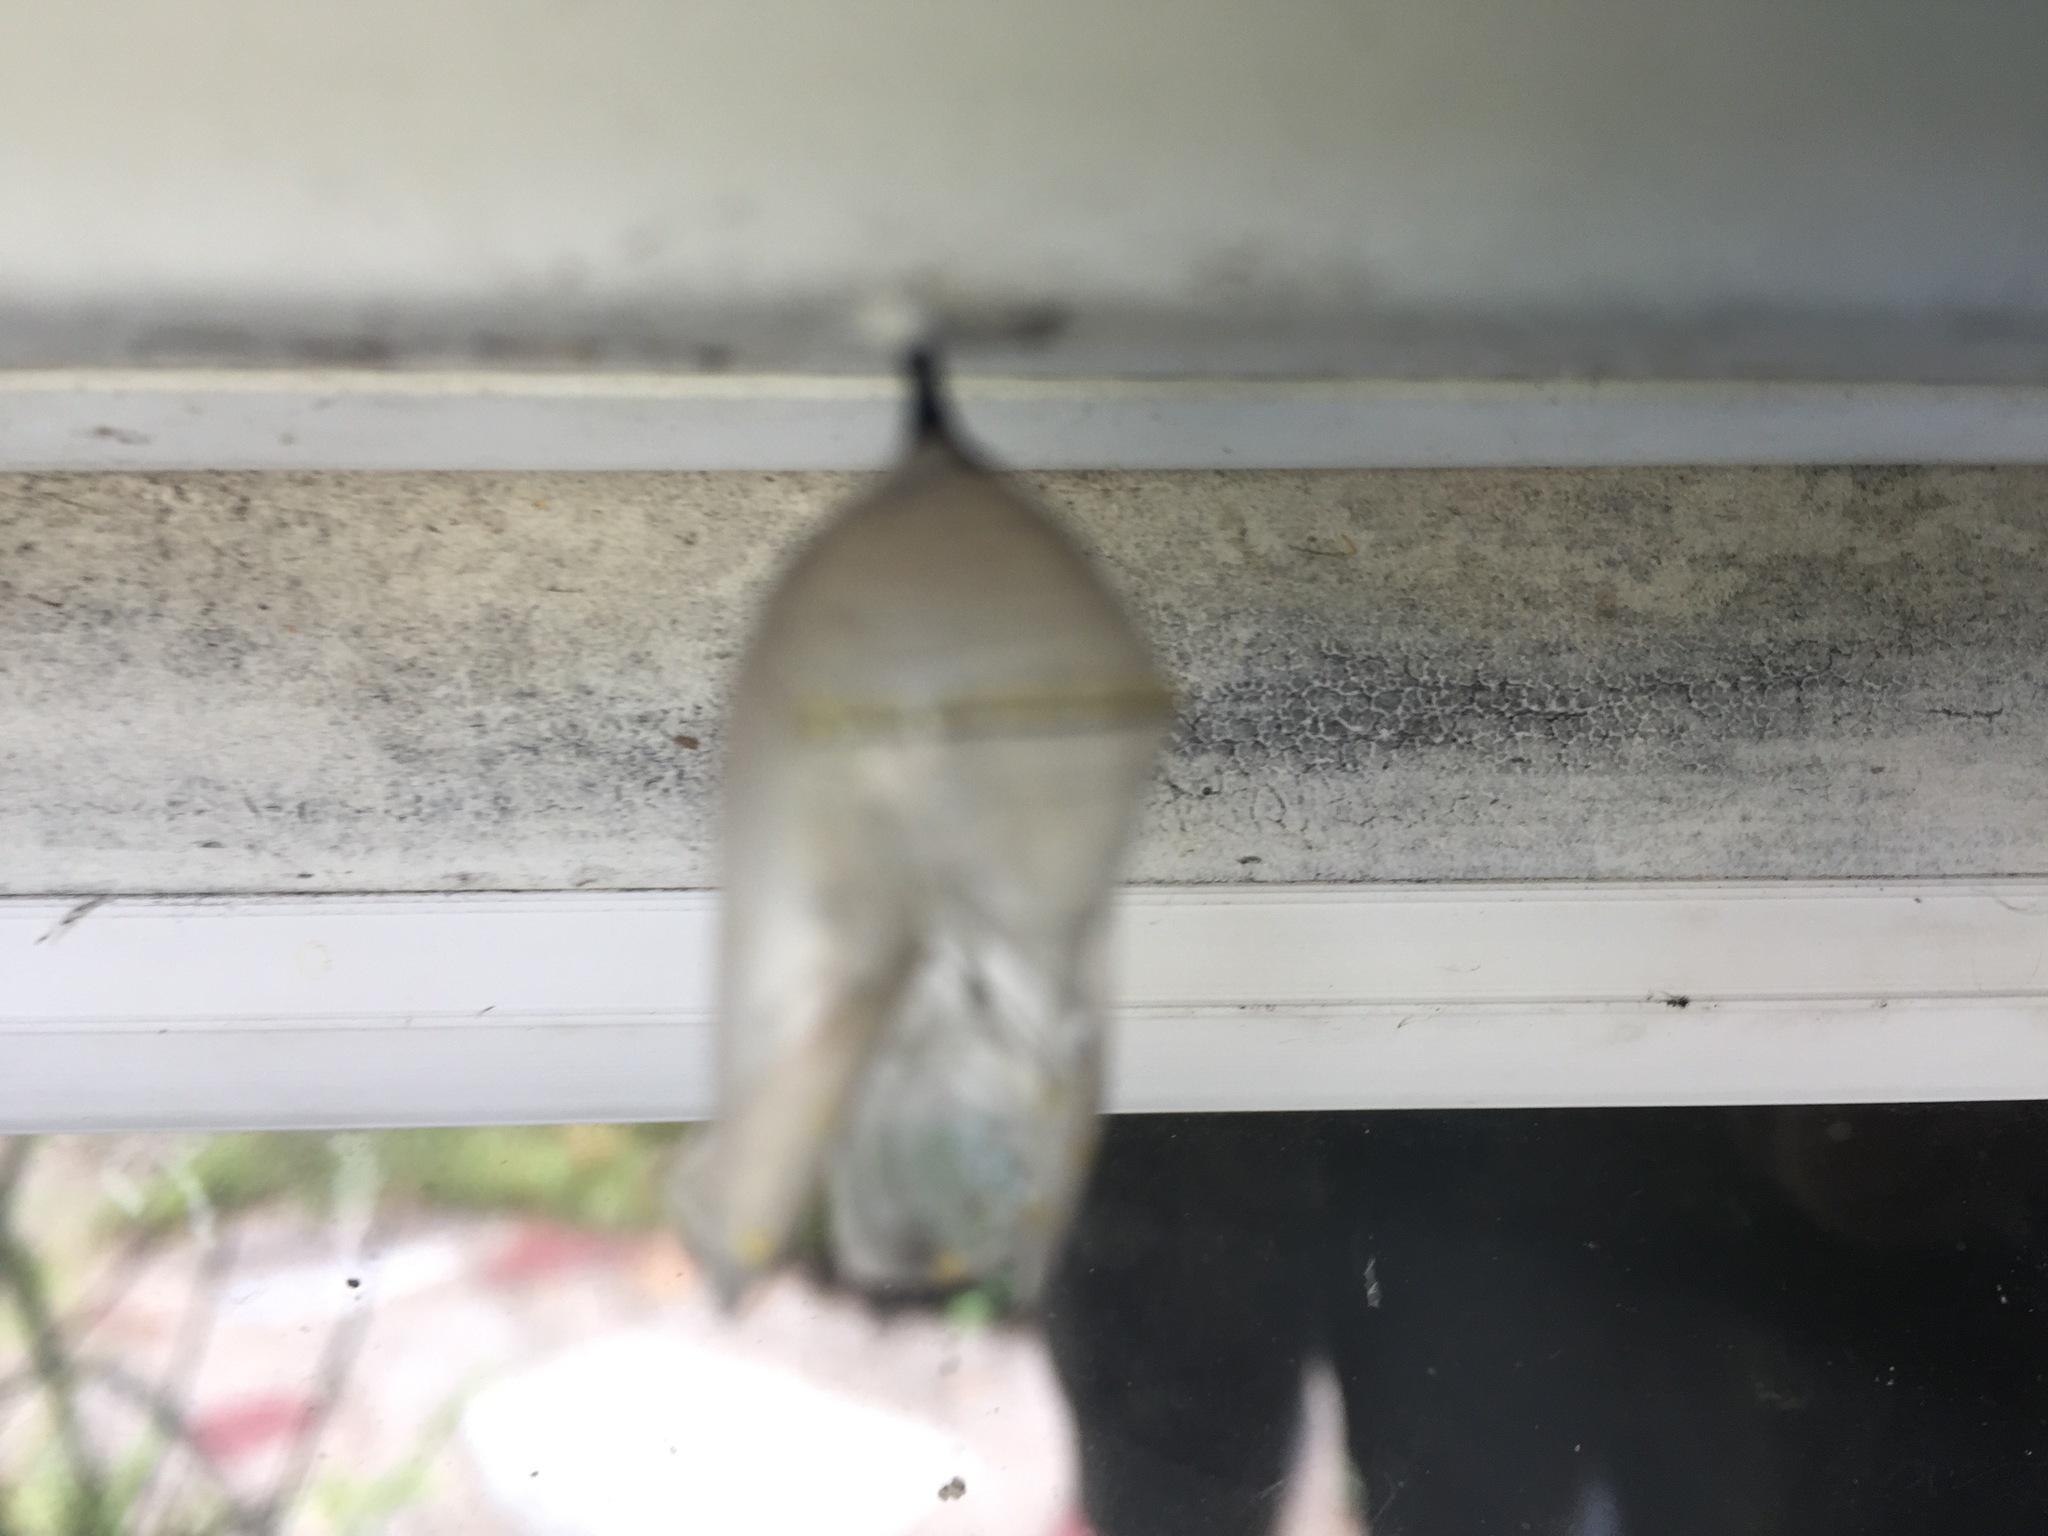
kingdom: Animalia
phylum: Arthropoda
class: Insecta
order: Lepidoptera
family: Nymphalidae
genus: Danaus
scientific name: Danaus plexippus
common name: Monarch
